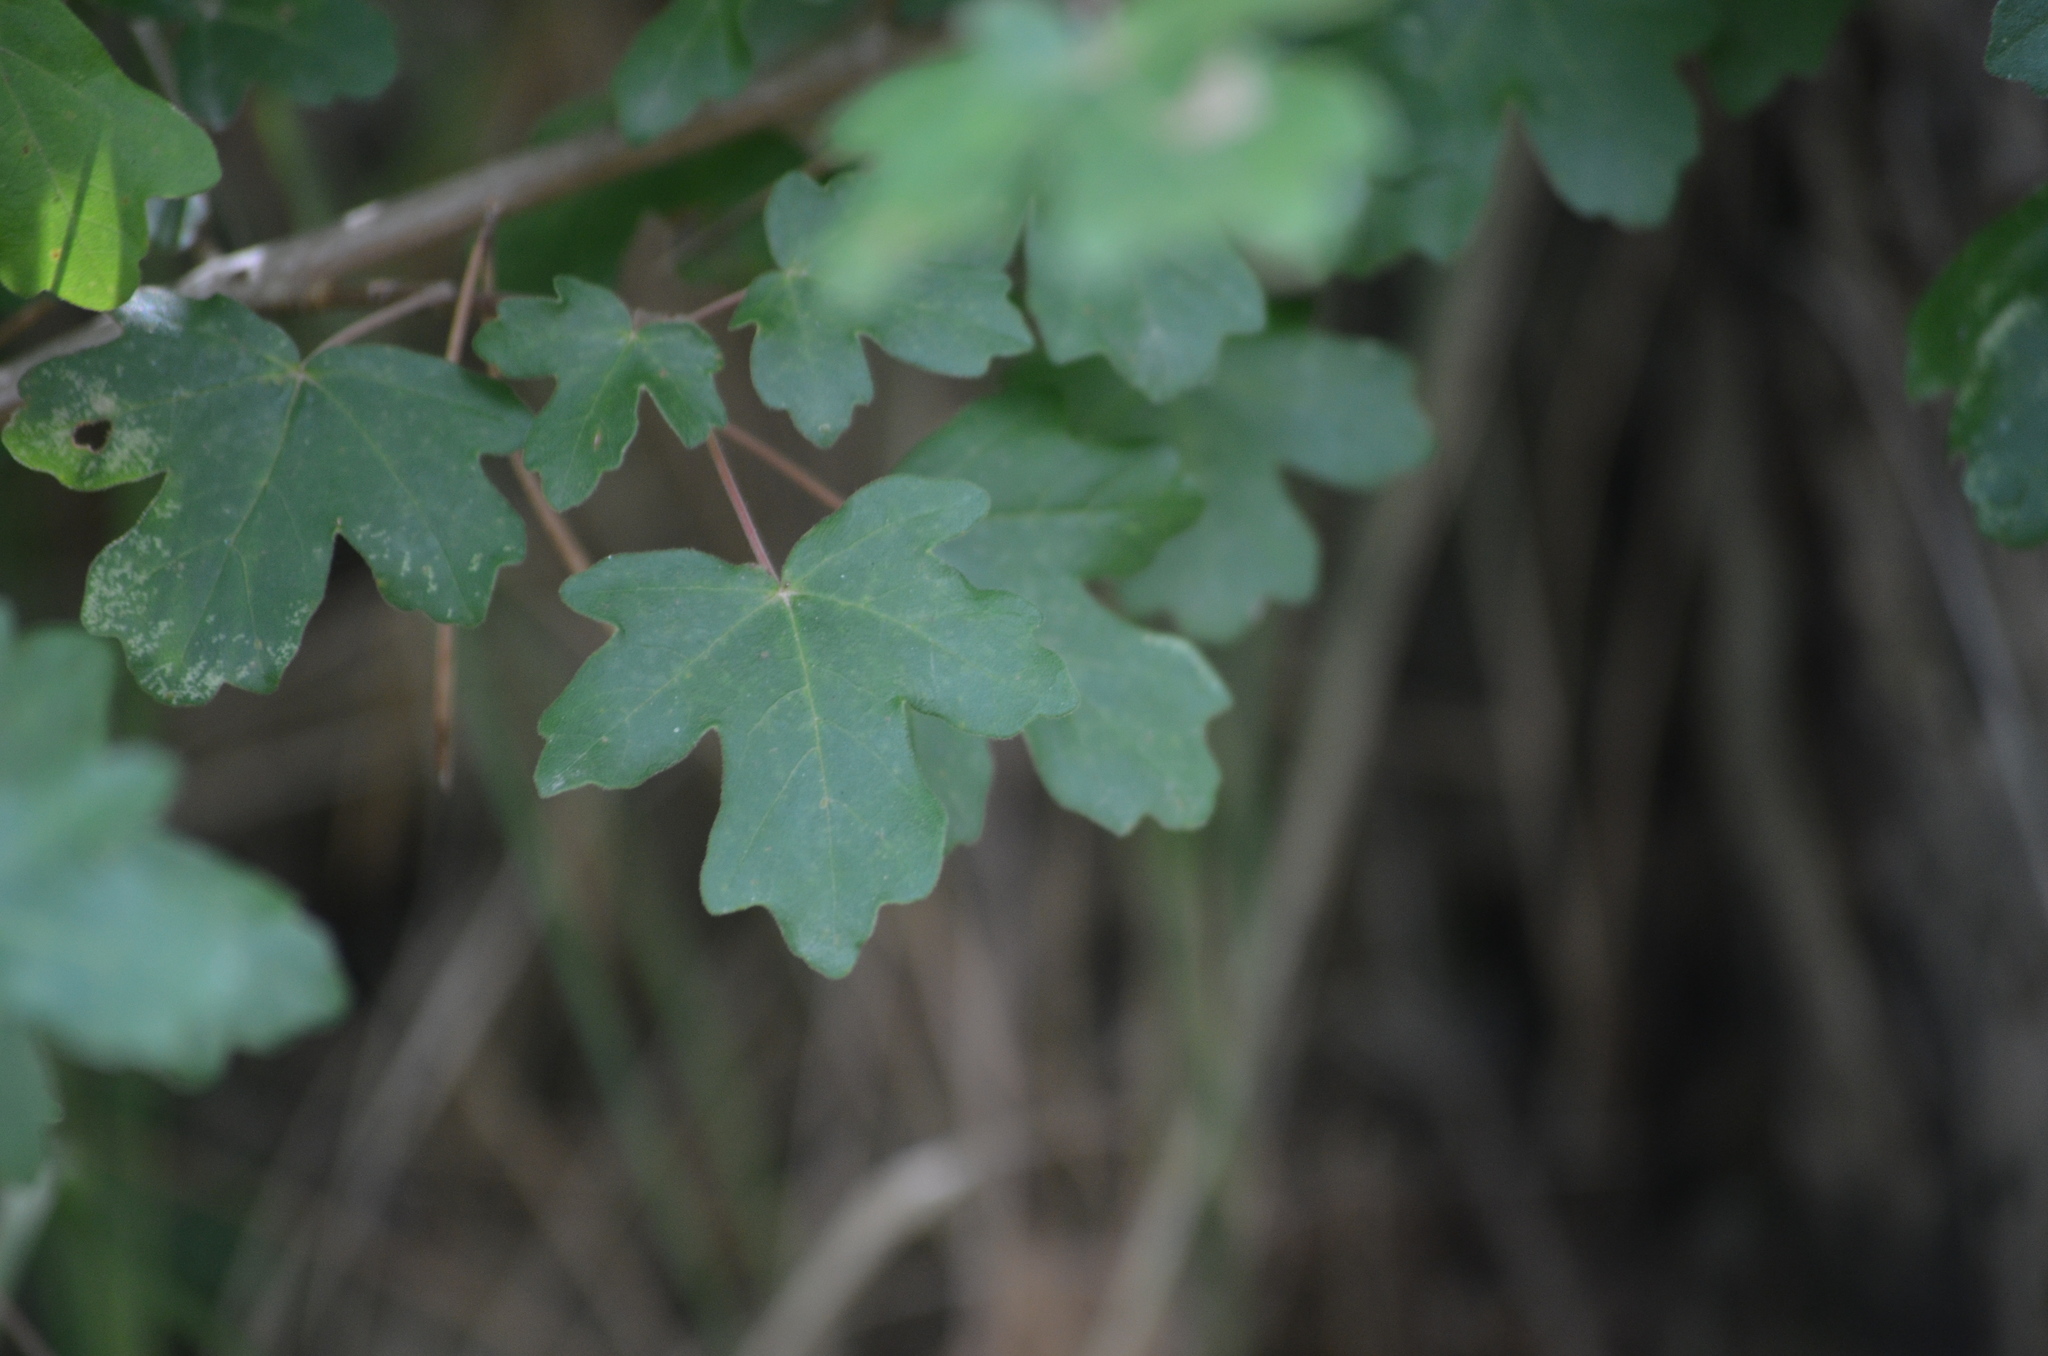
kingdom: Plantae
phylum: Tracheophyta
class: Magnoliopsida
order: Sapindales
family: Sapindaceae
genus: Acer
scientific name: Acer campestre
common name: Field maple
